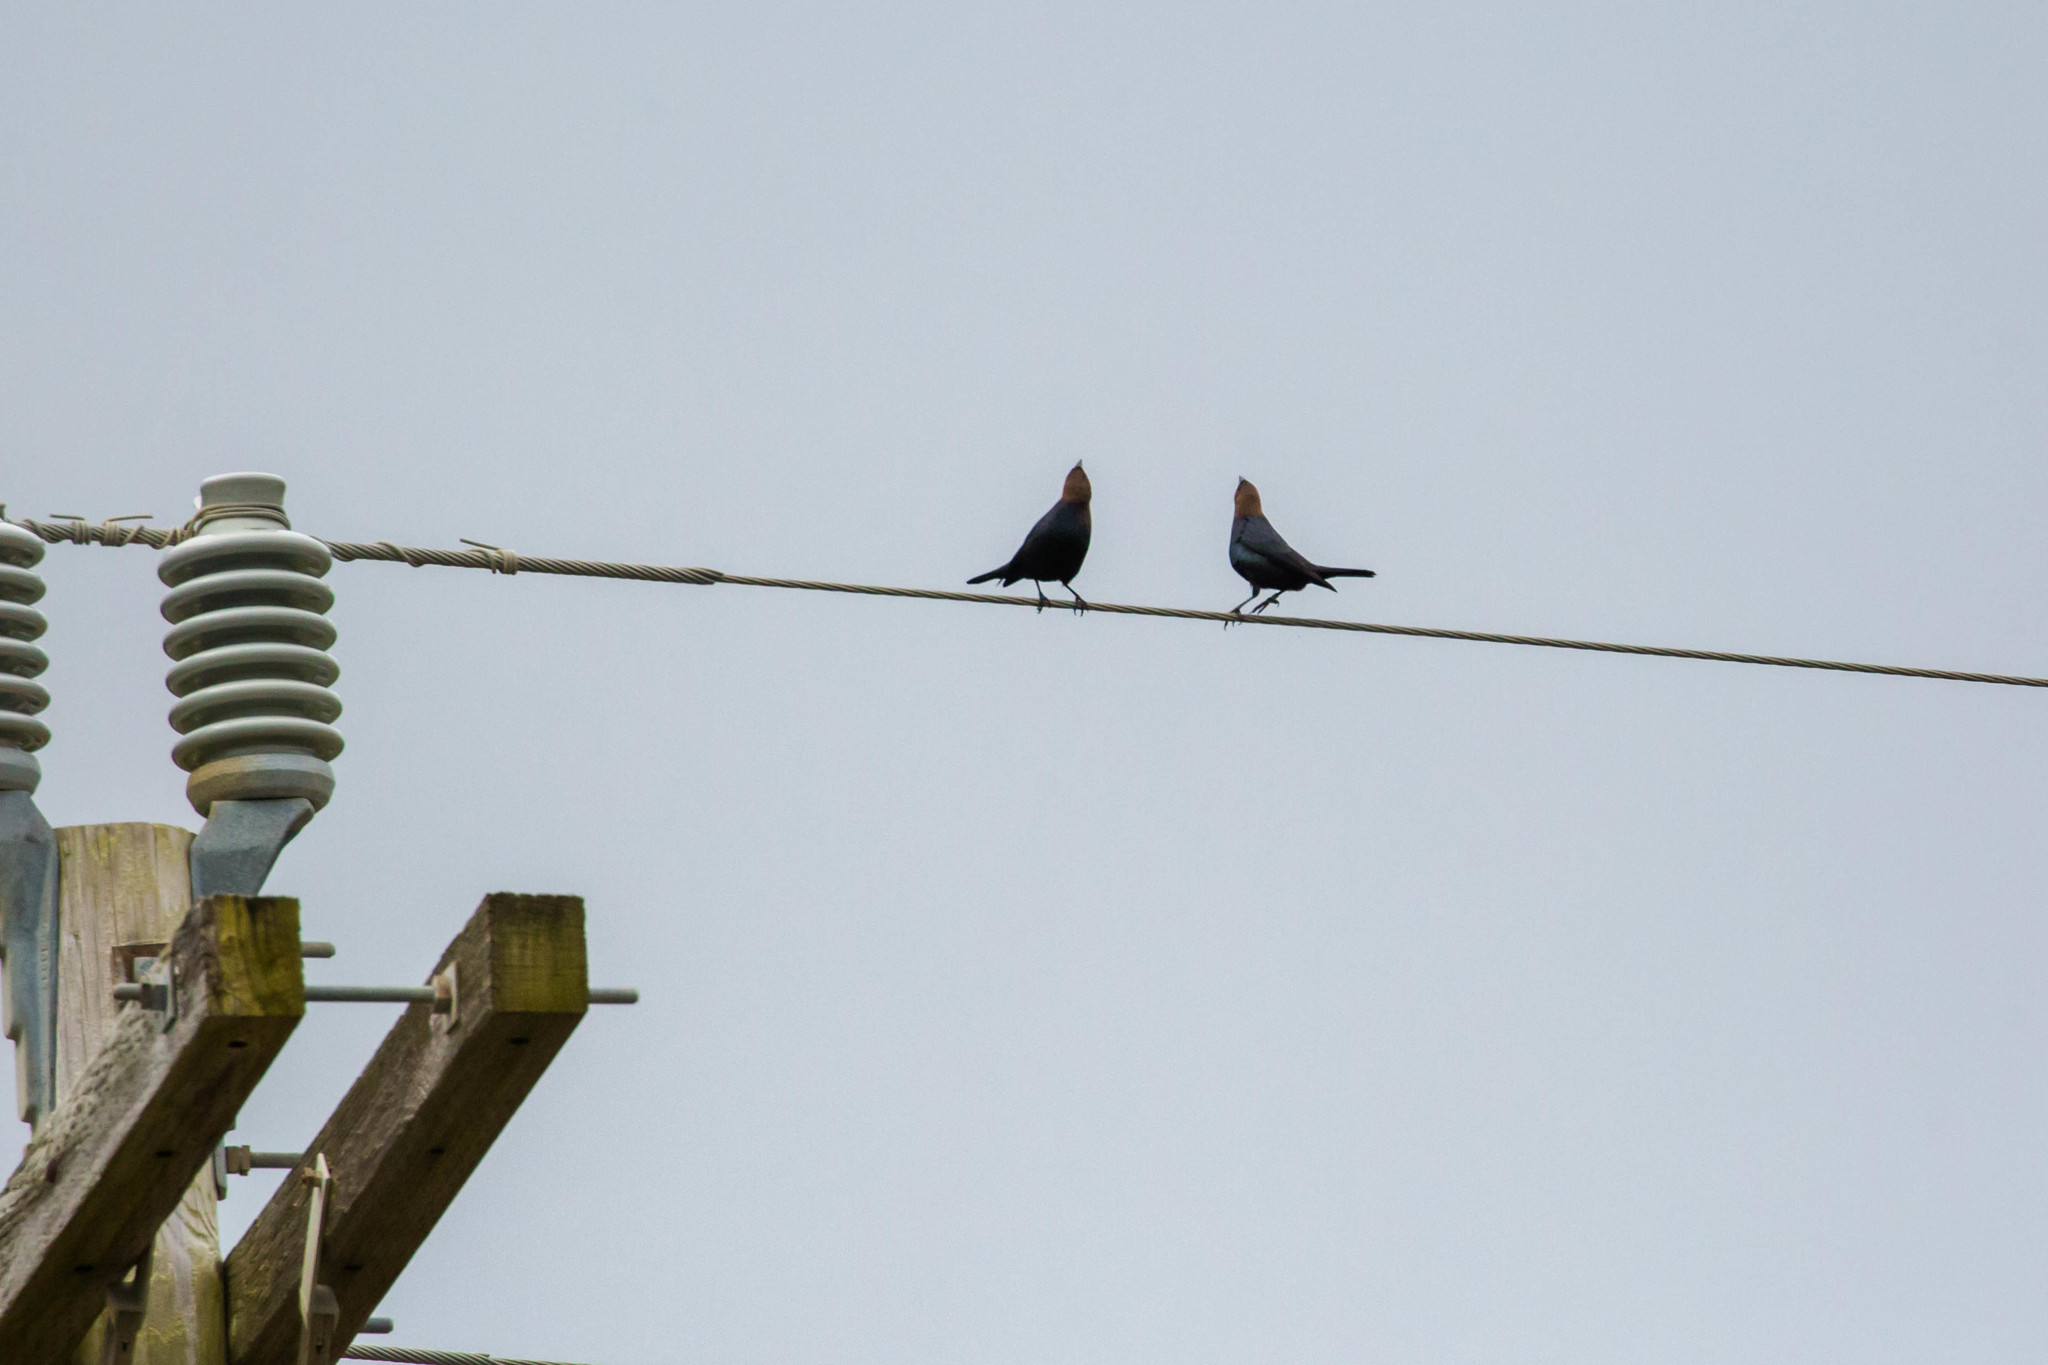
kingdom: Animalia
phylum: Chordata
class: Aves
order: Passeriformes
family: Icteridae
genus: Molothrus
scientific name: Molothrus ater
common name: Brown-headed cowbird
